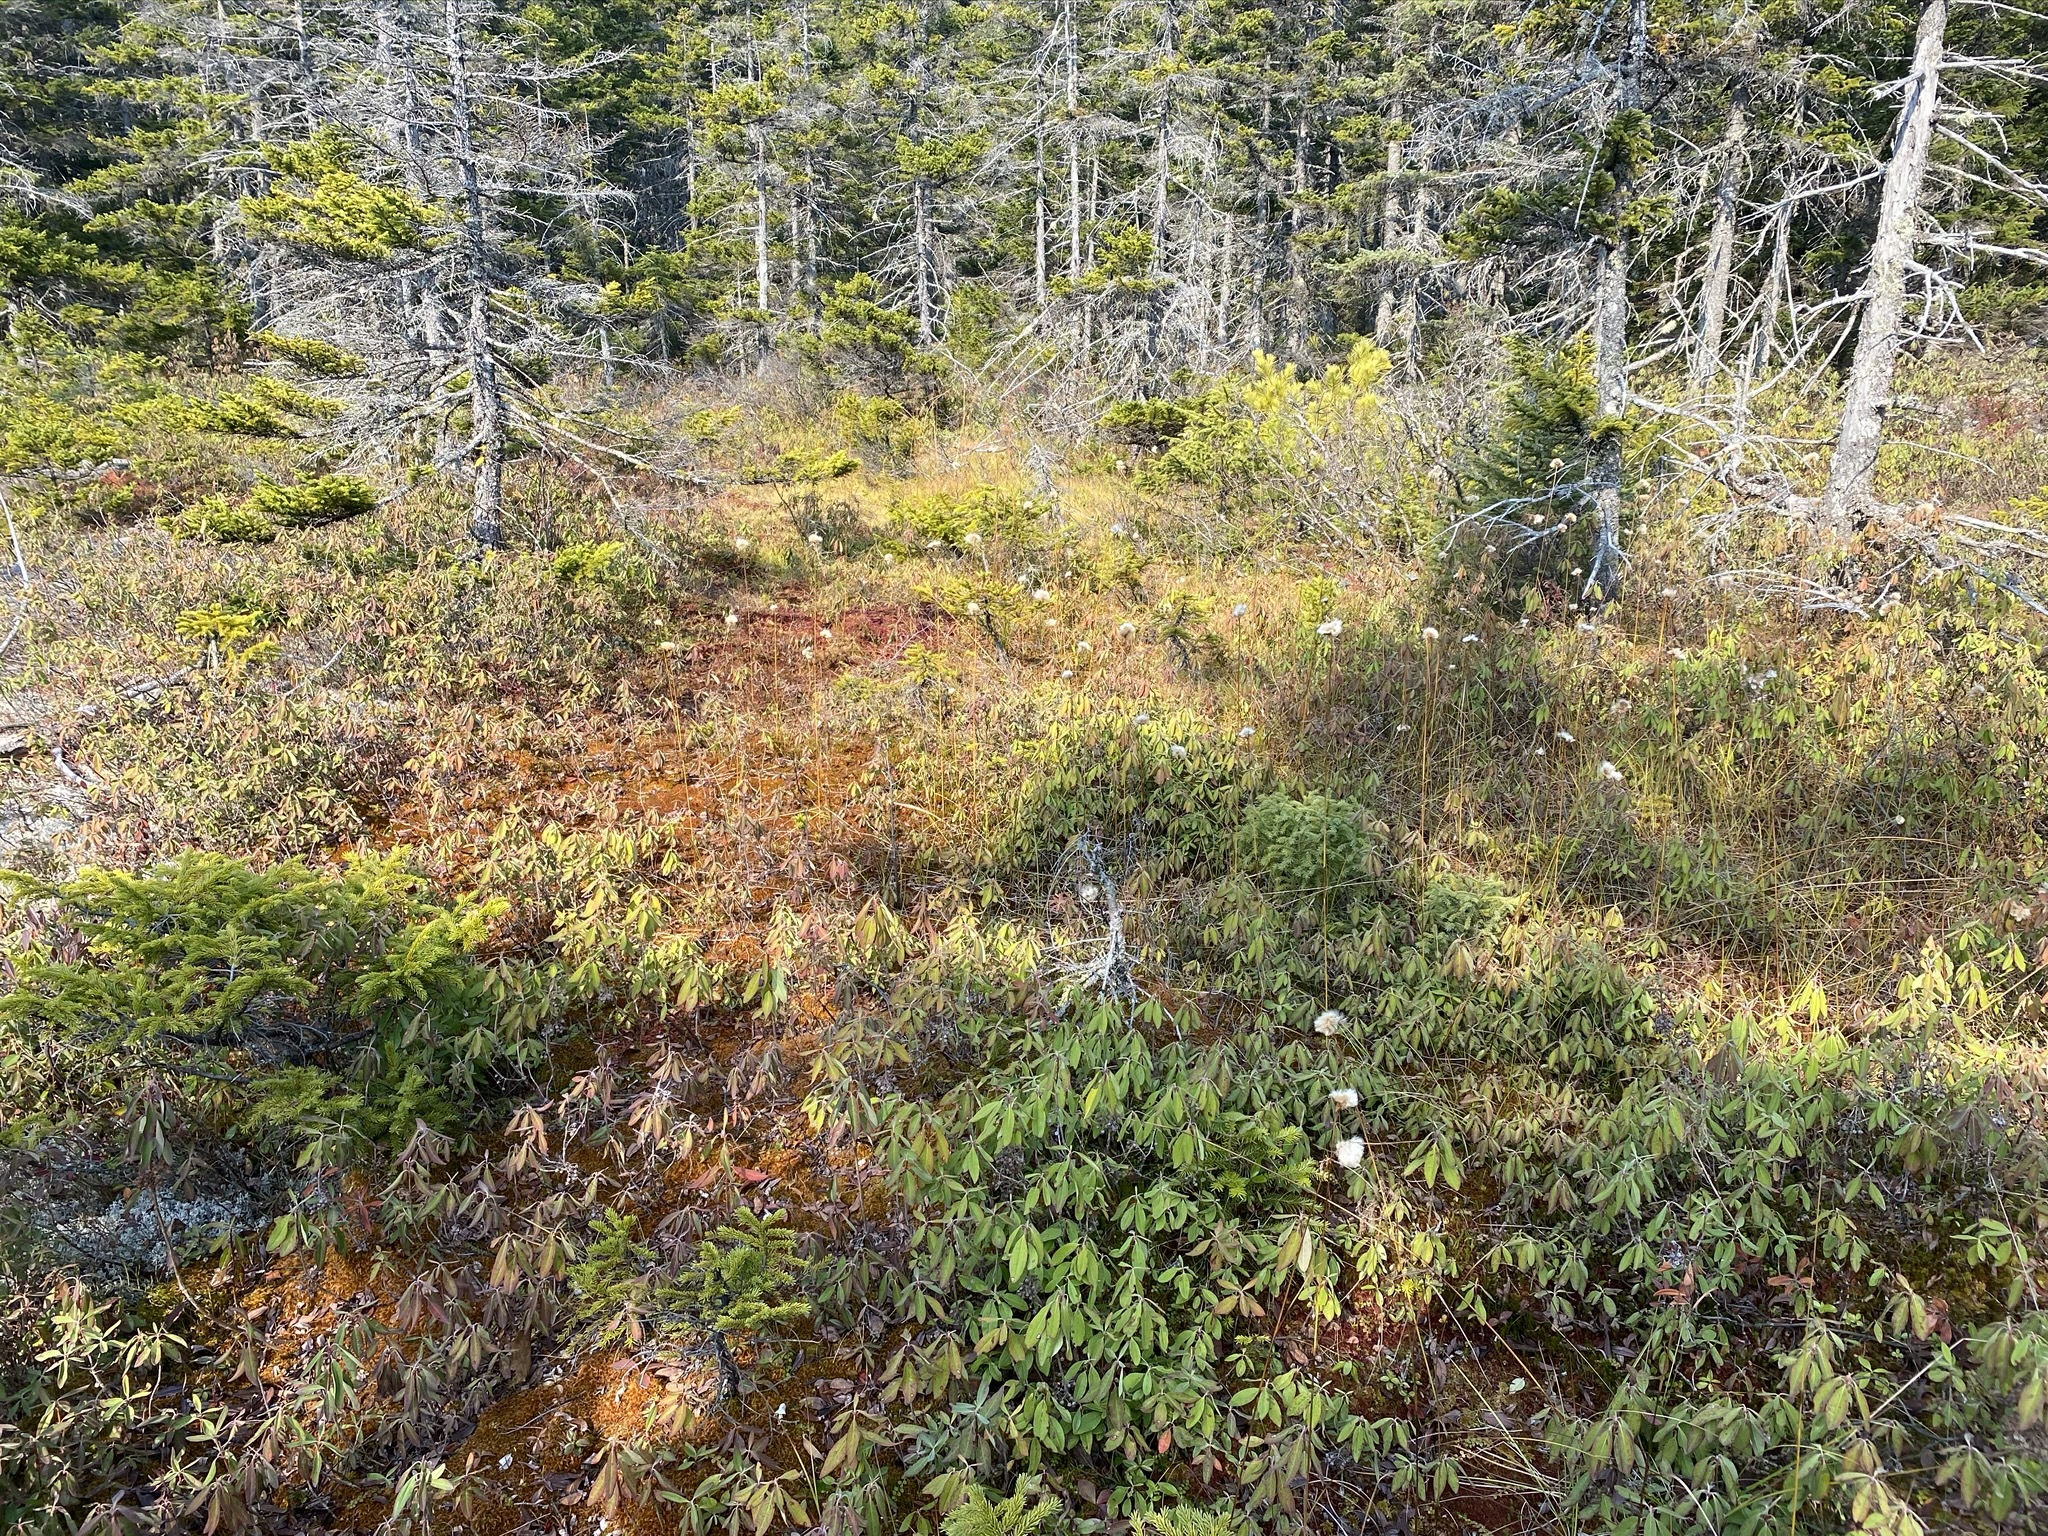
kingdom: Plantae
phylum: Tracheophyta
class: Liliopsida
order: Poales
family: Cyperaceae
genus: Eriophorum
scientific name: Eriophorum virginicum
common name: Tawny cottongrass
